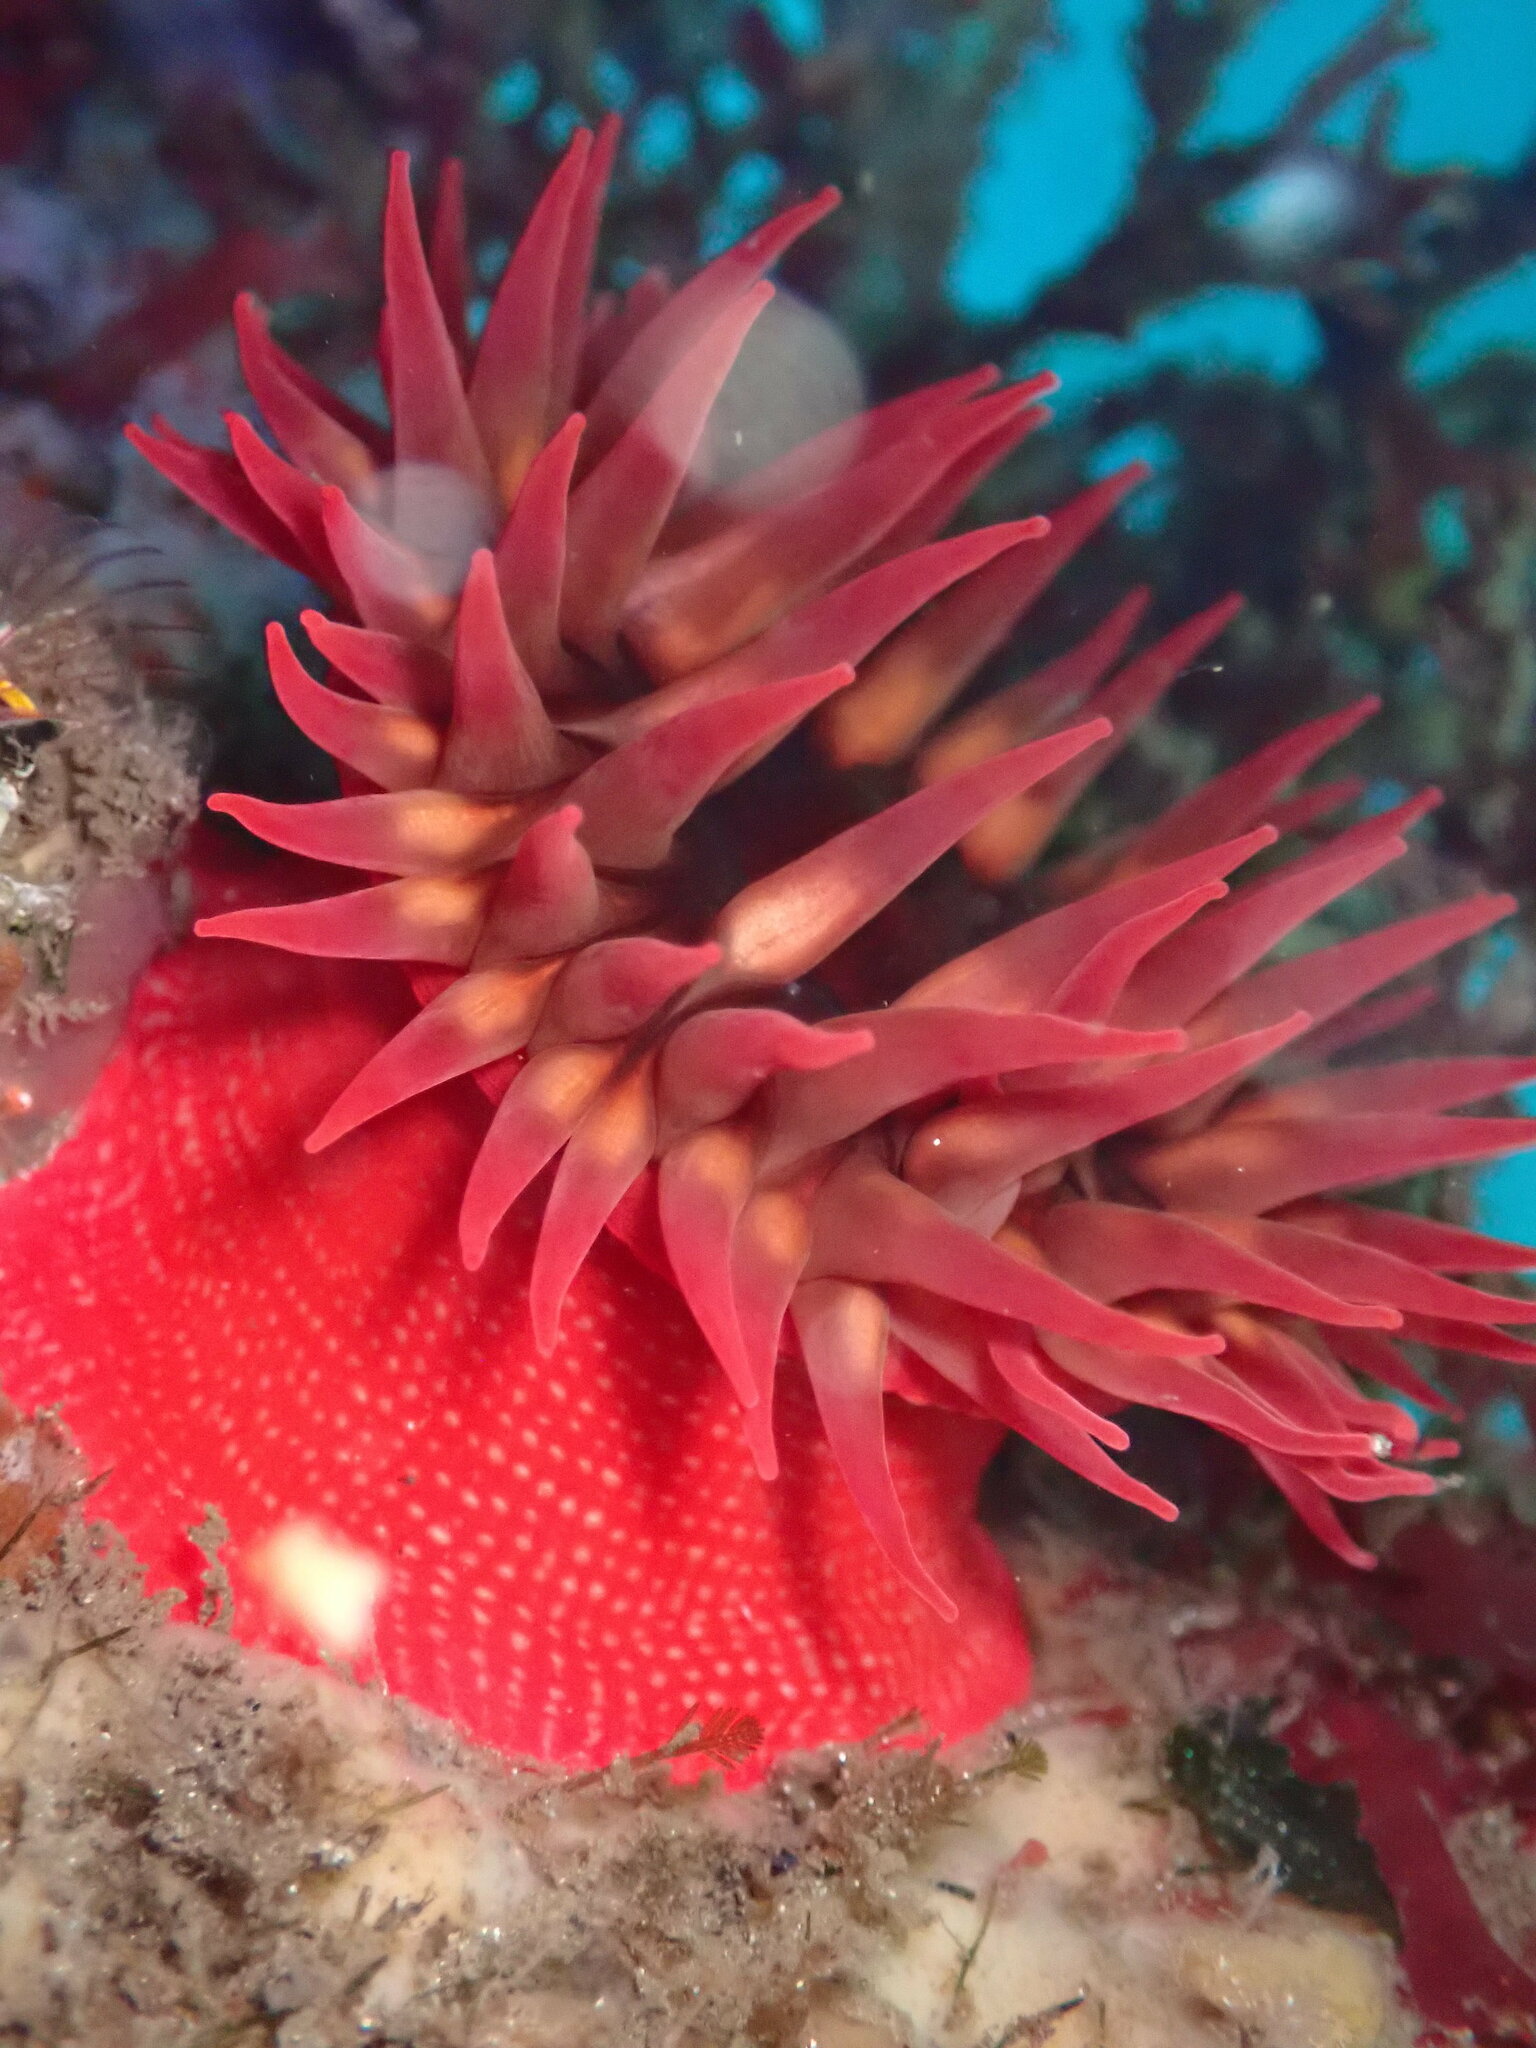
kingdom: Animalia
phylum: Cnidaria
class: Anthozoa
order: Actiniaria
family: Actiniidae
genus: Cribrinopsis
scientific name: Cribrinopsis albopunctata
